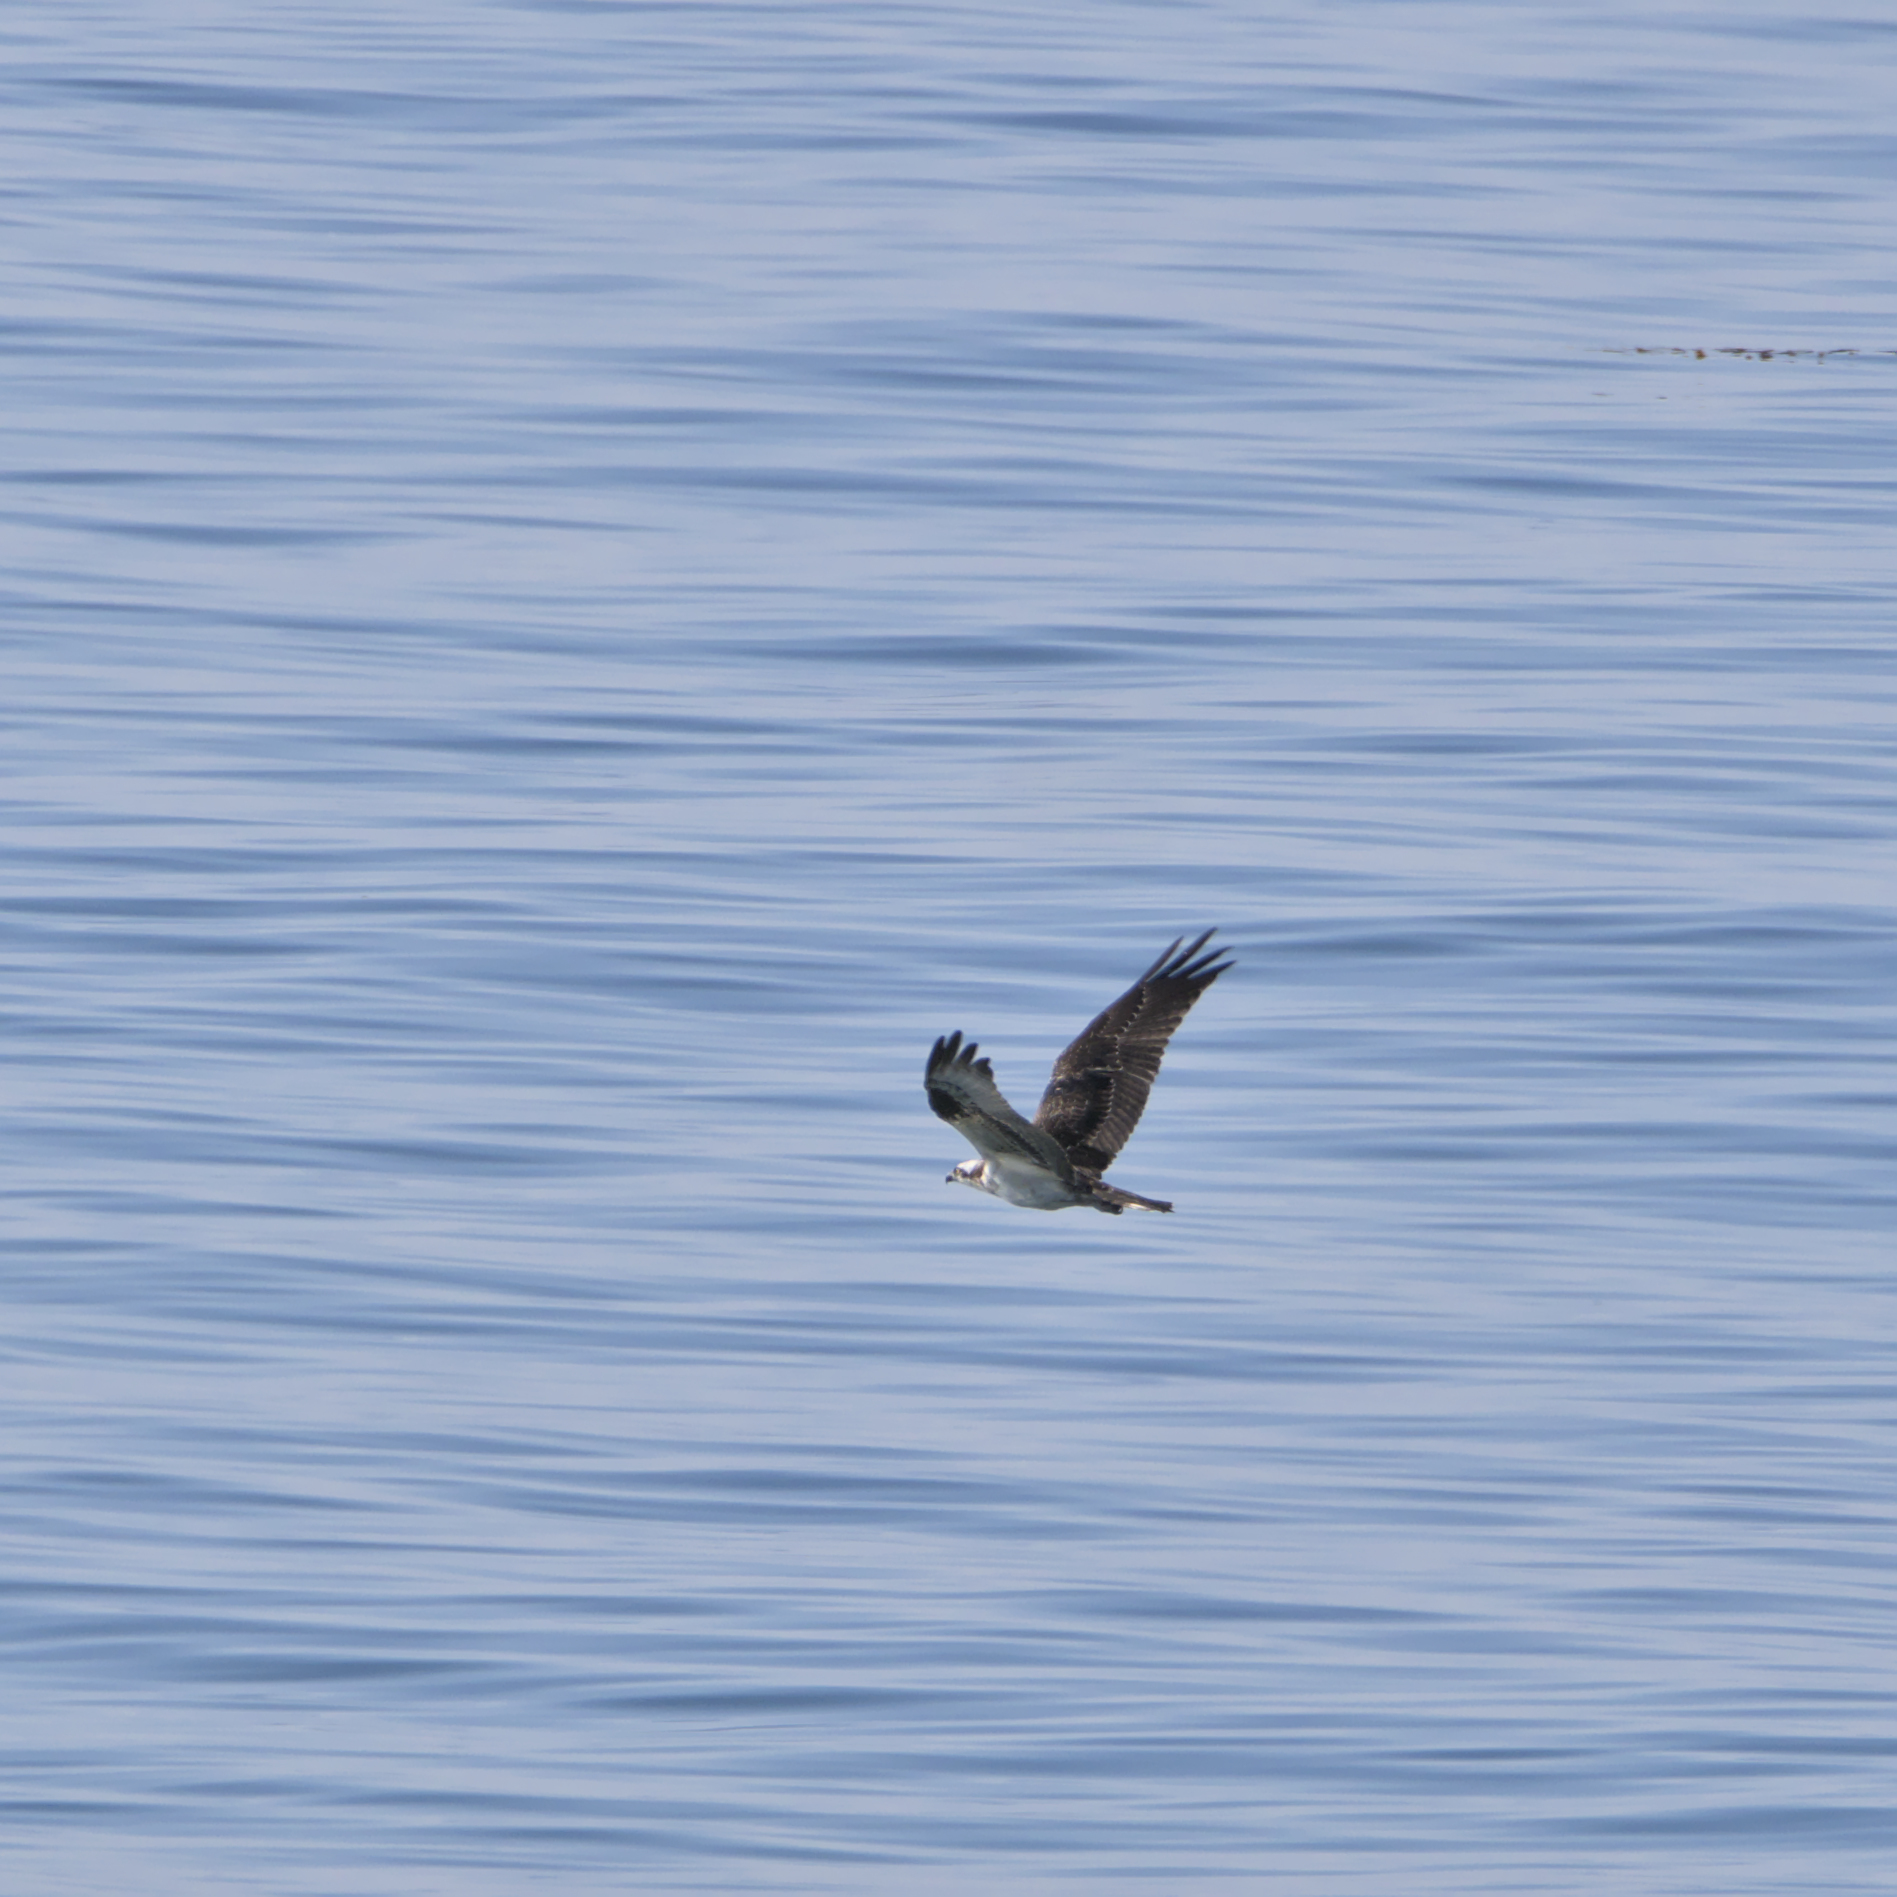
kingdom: Animalia
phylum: Chordata
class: Aves
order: Accipitriformes
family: Pandionidae
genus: Pandion
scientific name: Pandion haliaetus
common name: Osprey
